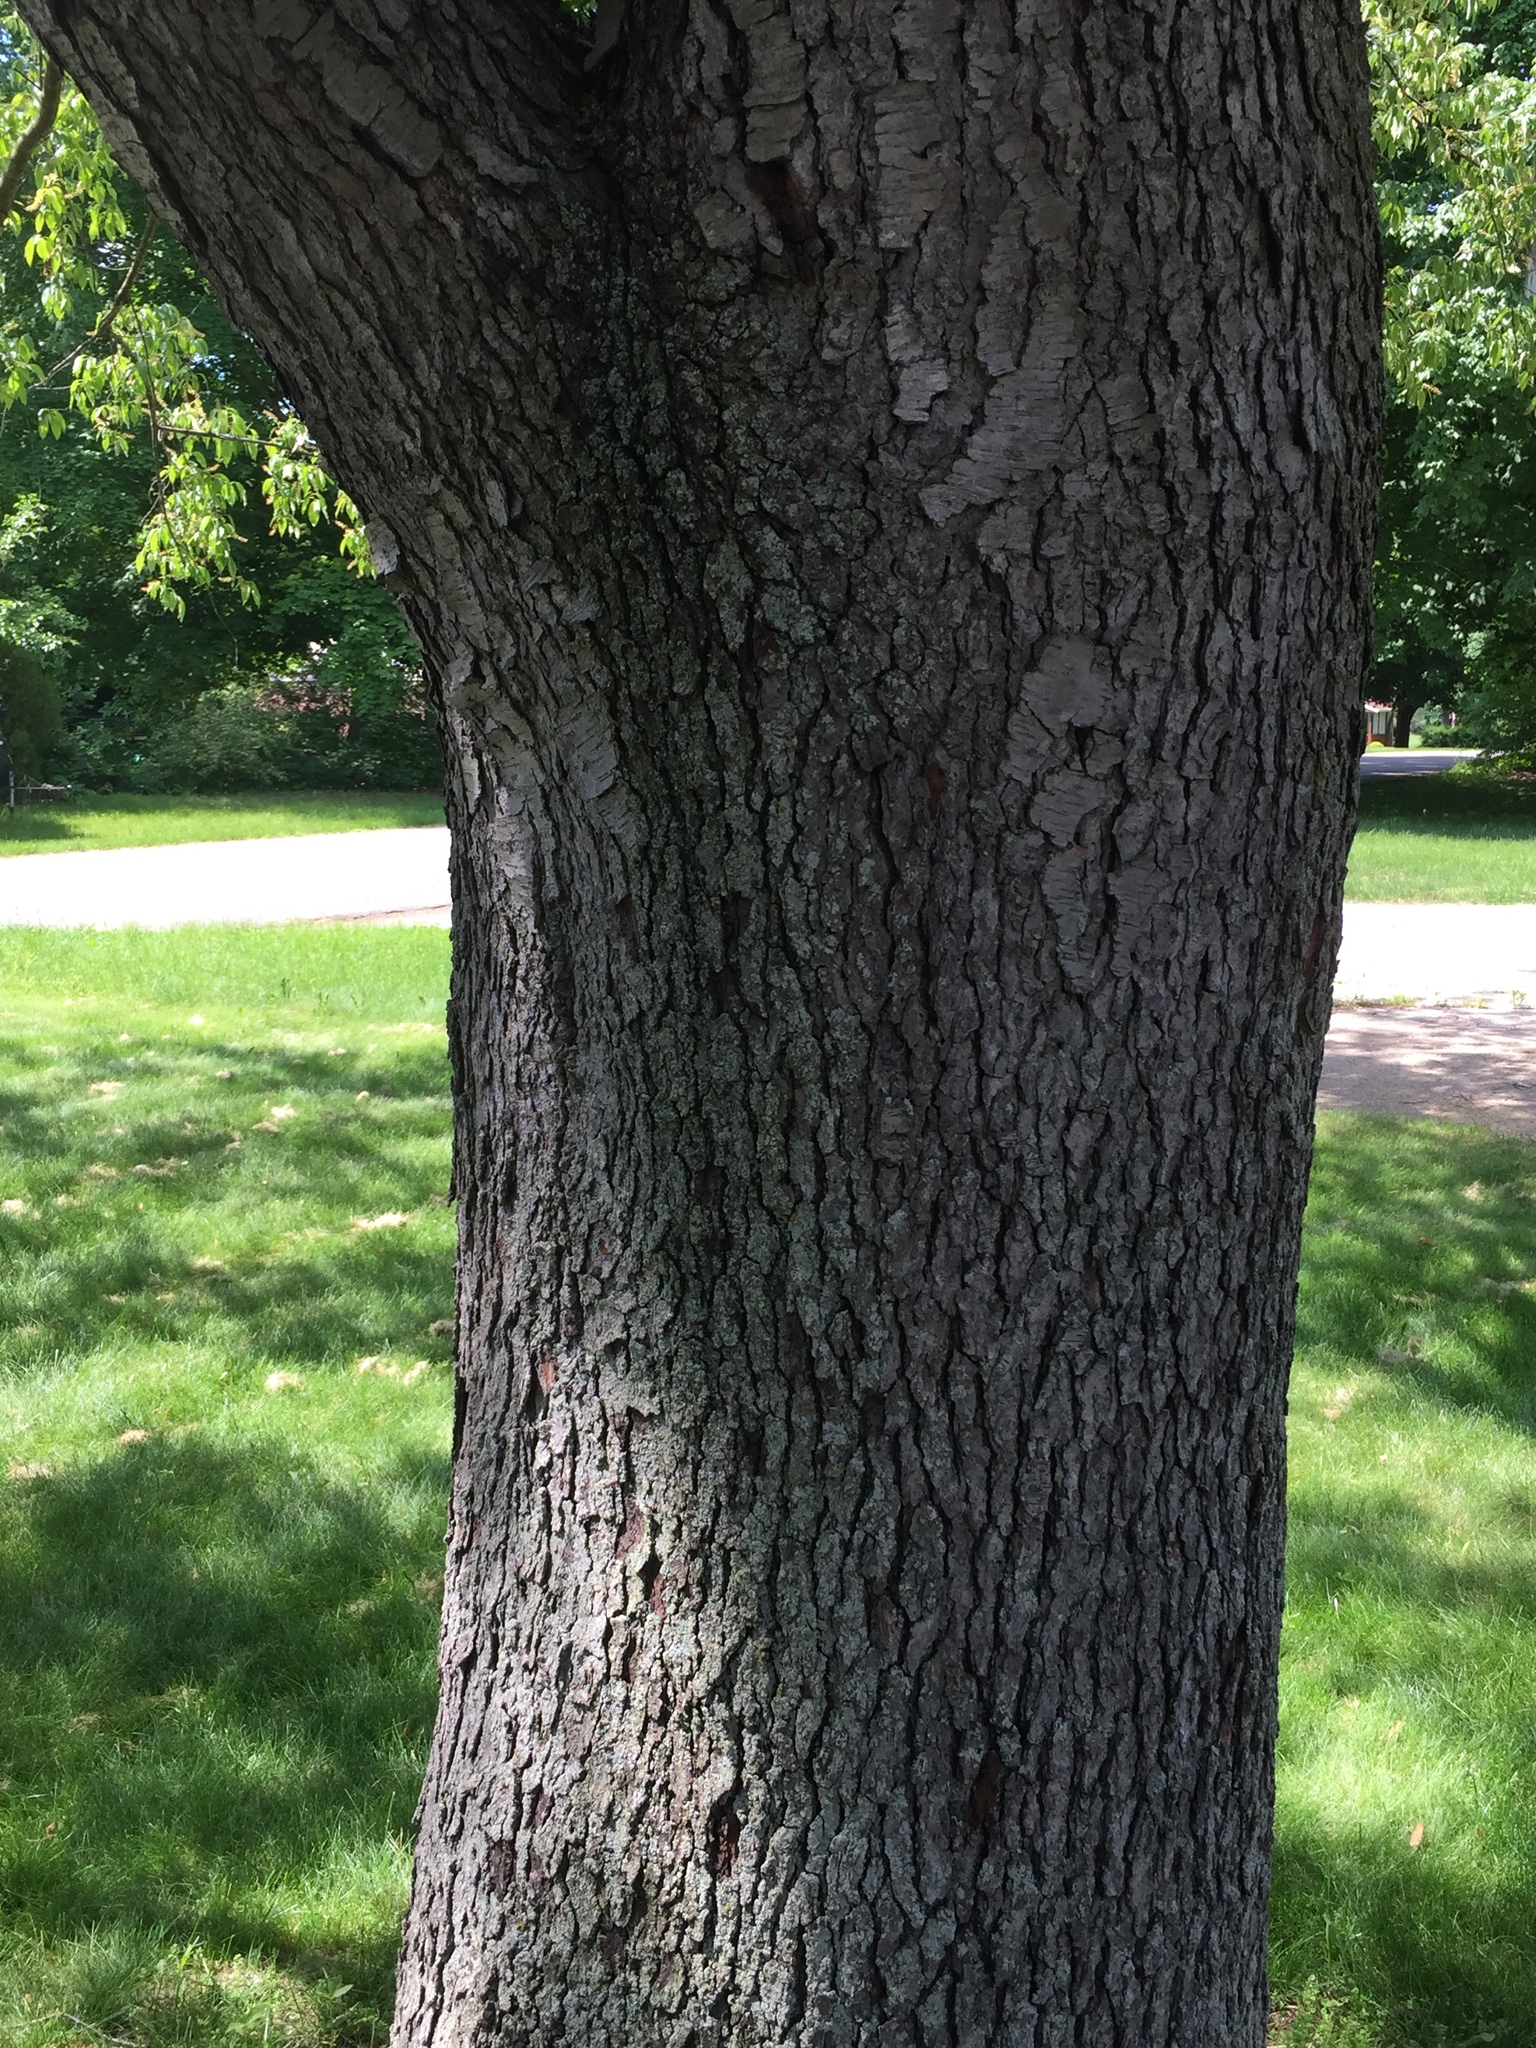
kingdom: Plantae
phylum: Tracheophyta
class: Magnoliopsida
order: Rosales
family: Rosaceae
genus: Prunus
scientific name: Prunus serotina
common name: Black cherry
